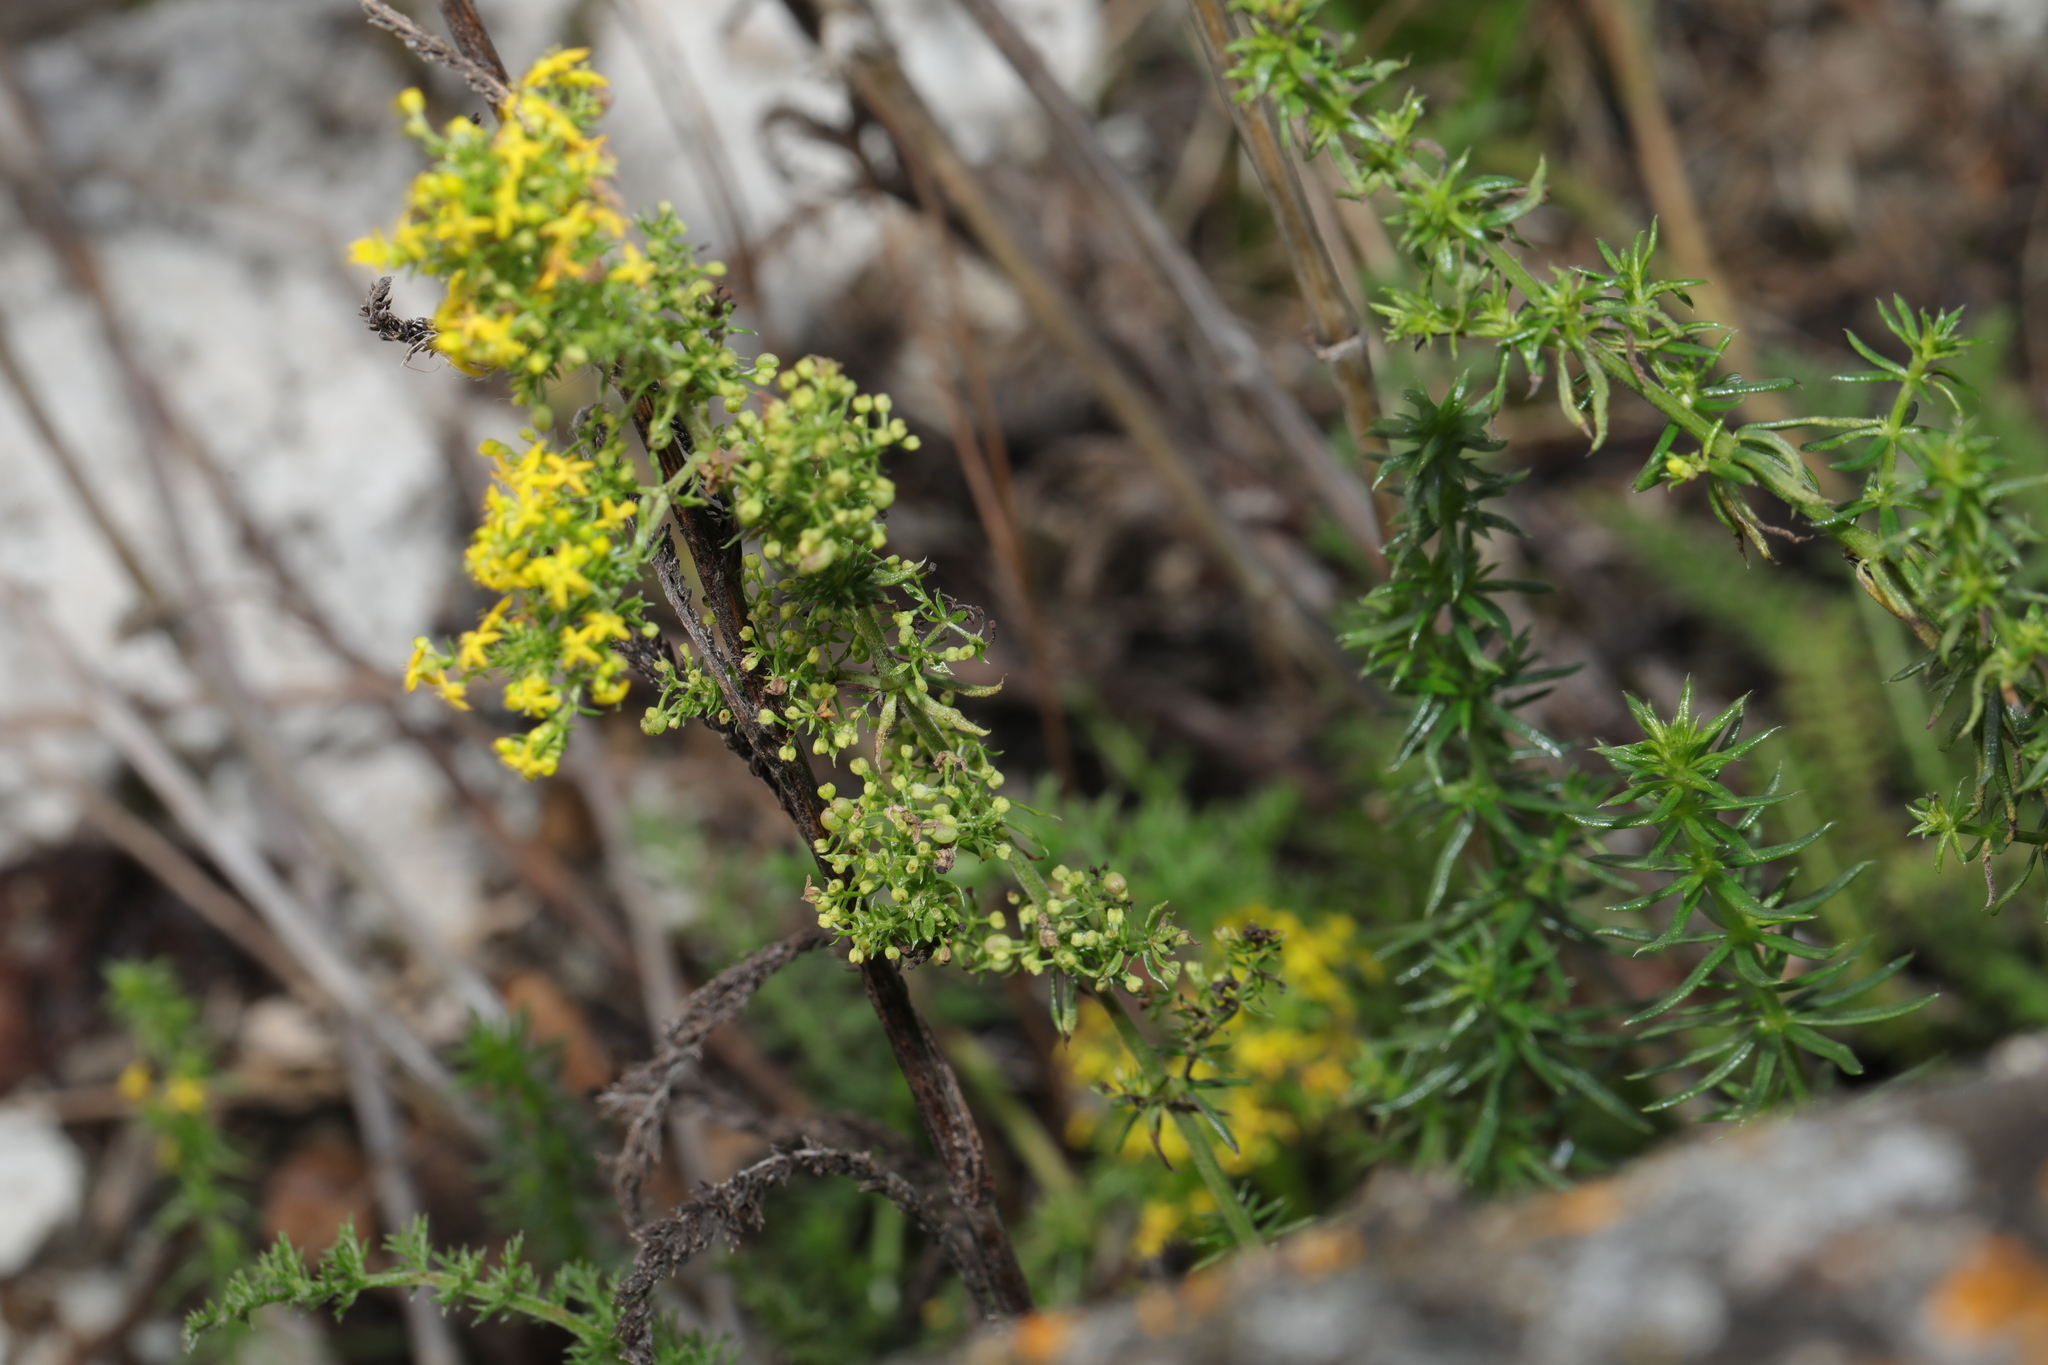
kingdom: Plantae
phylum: Tracheophyta
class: Magnoliopsida
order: Gentianales
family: Rubiaceae
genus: Galium
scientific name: Galium verum
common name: Lady's bedstraw
